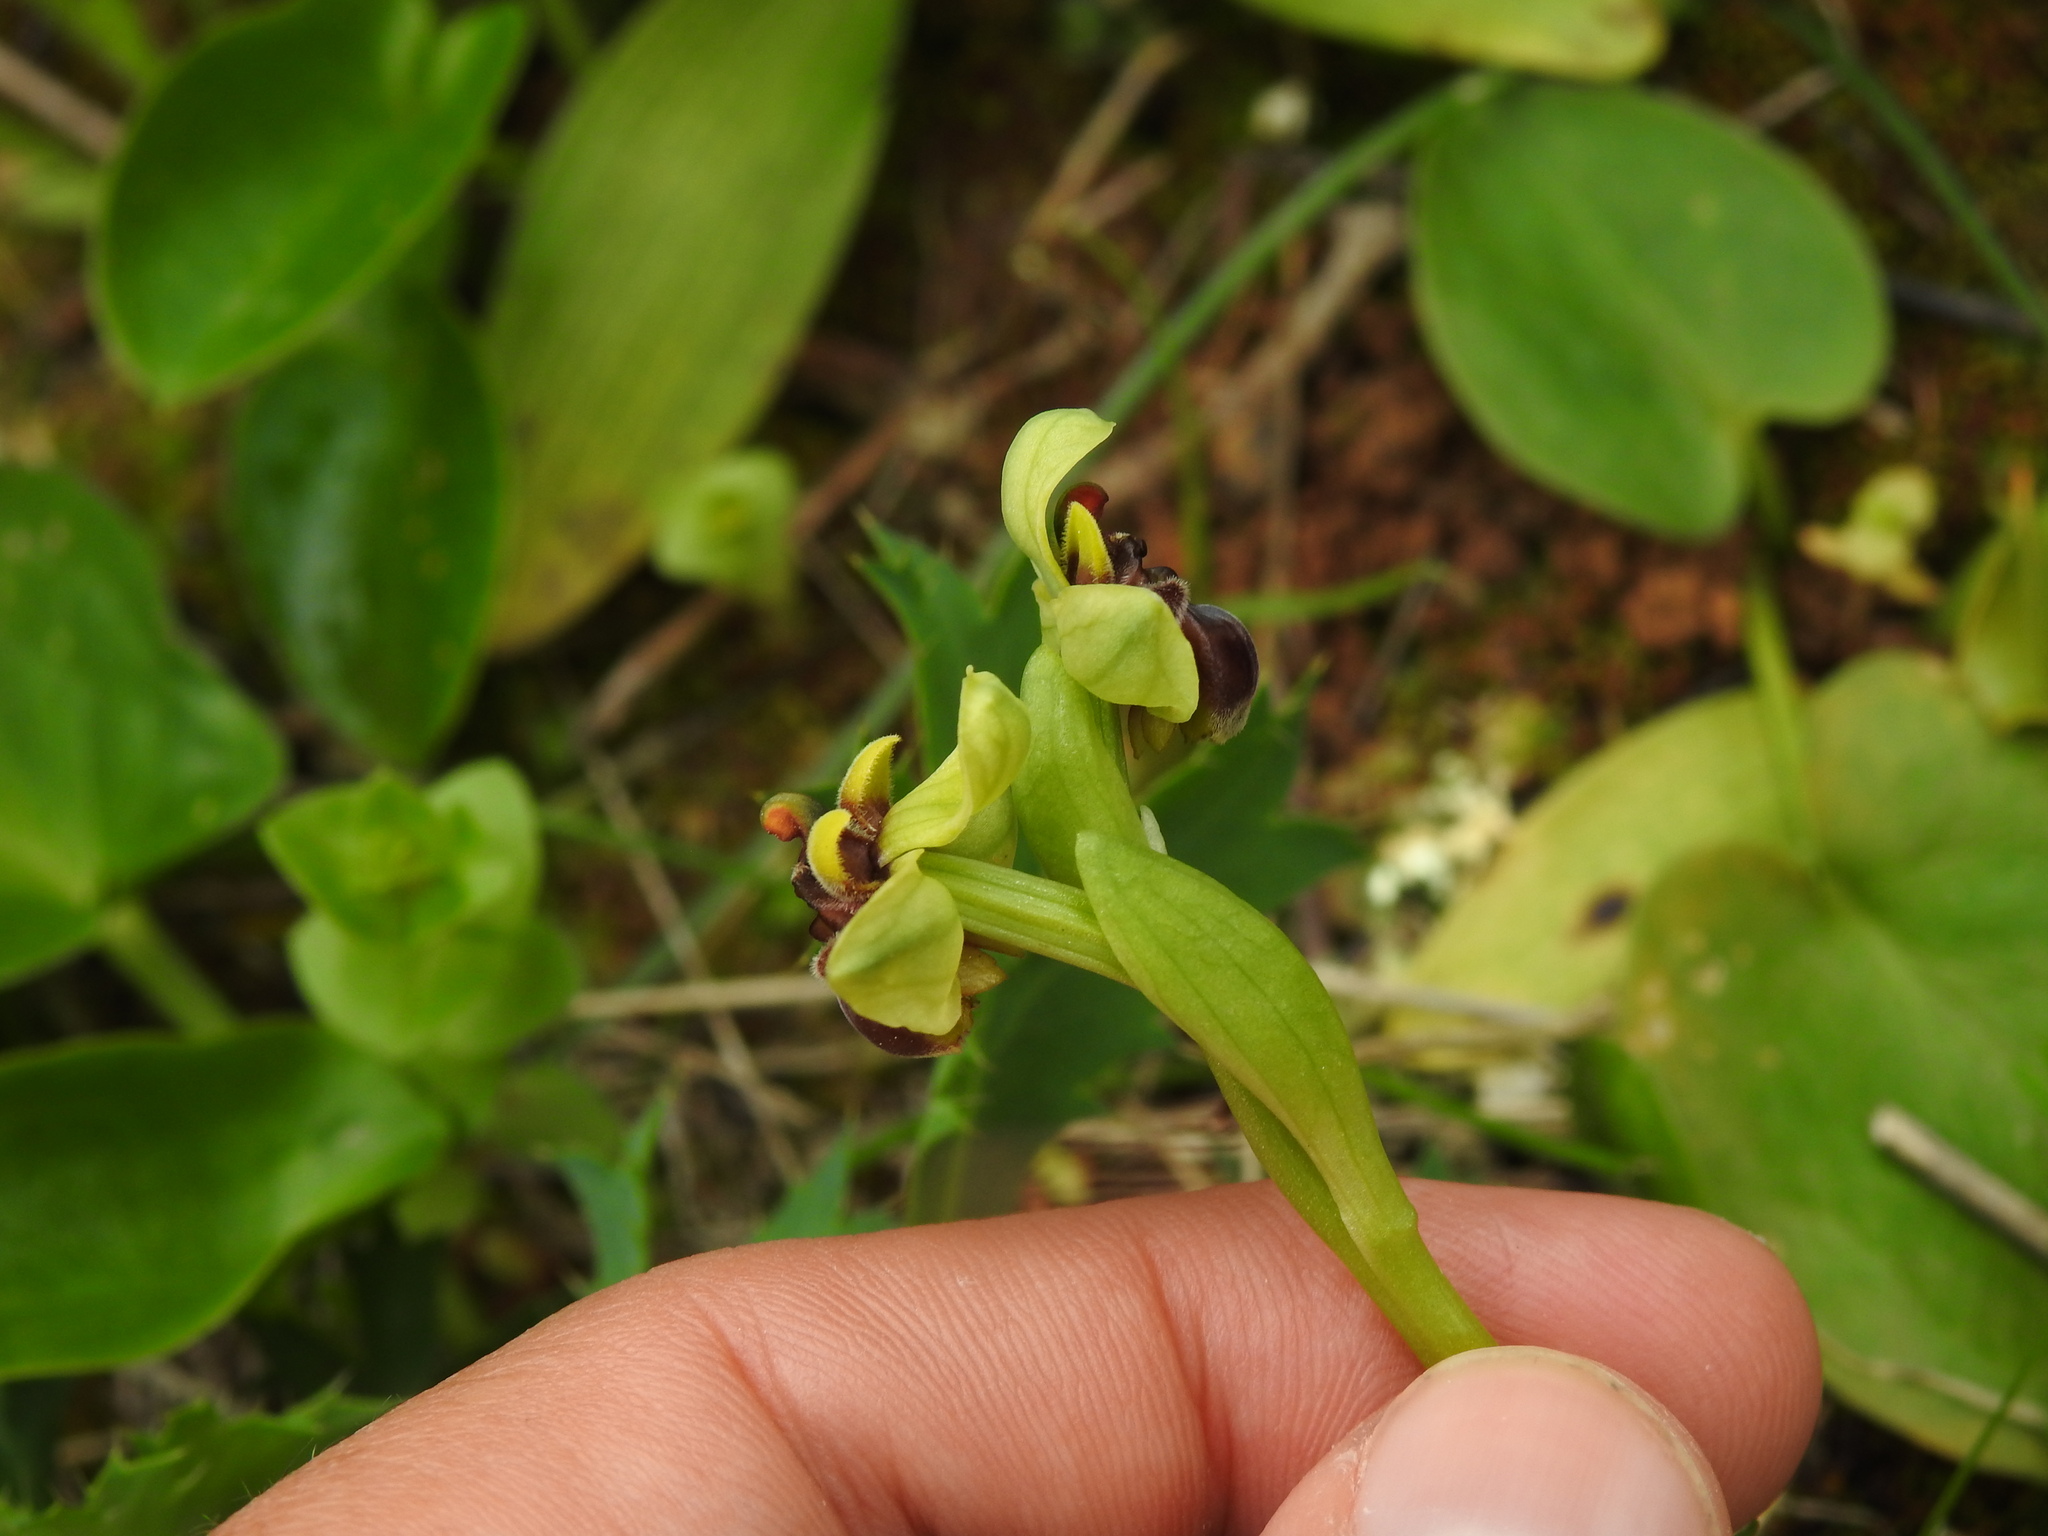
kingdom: Plantae
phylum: Tracheophyta
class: Liliopsida
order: Asparagales
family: Orchidaceae
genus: Ophrys
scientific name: Ophrys bombyliflora
